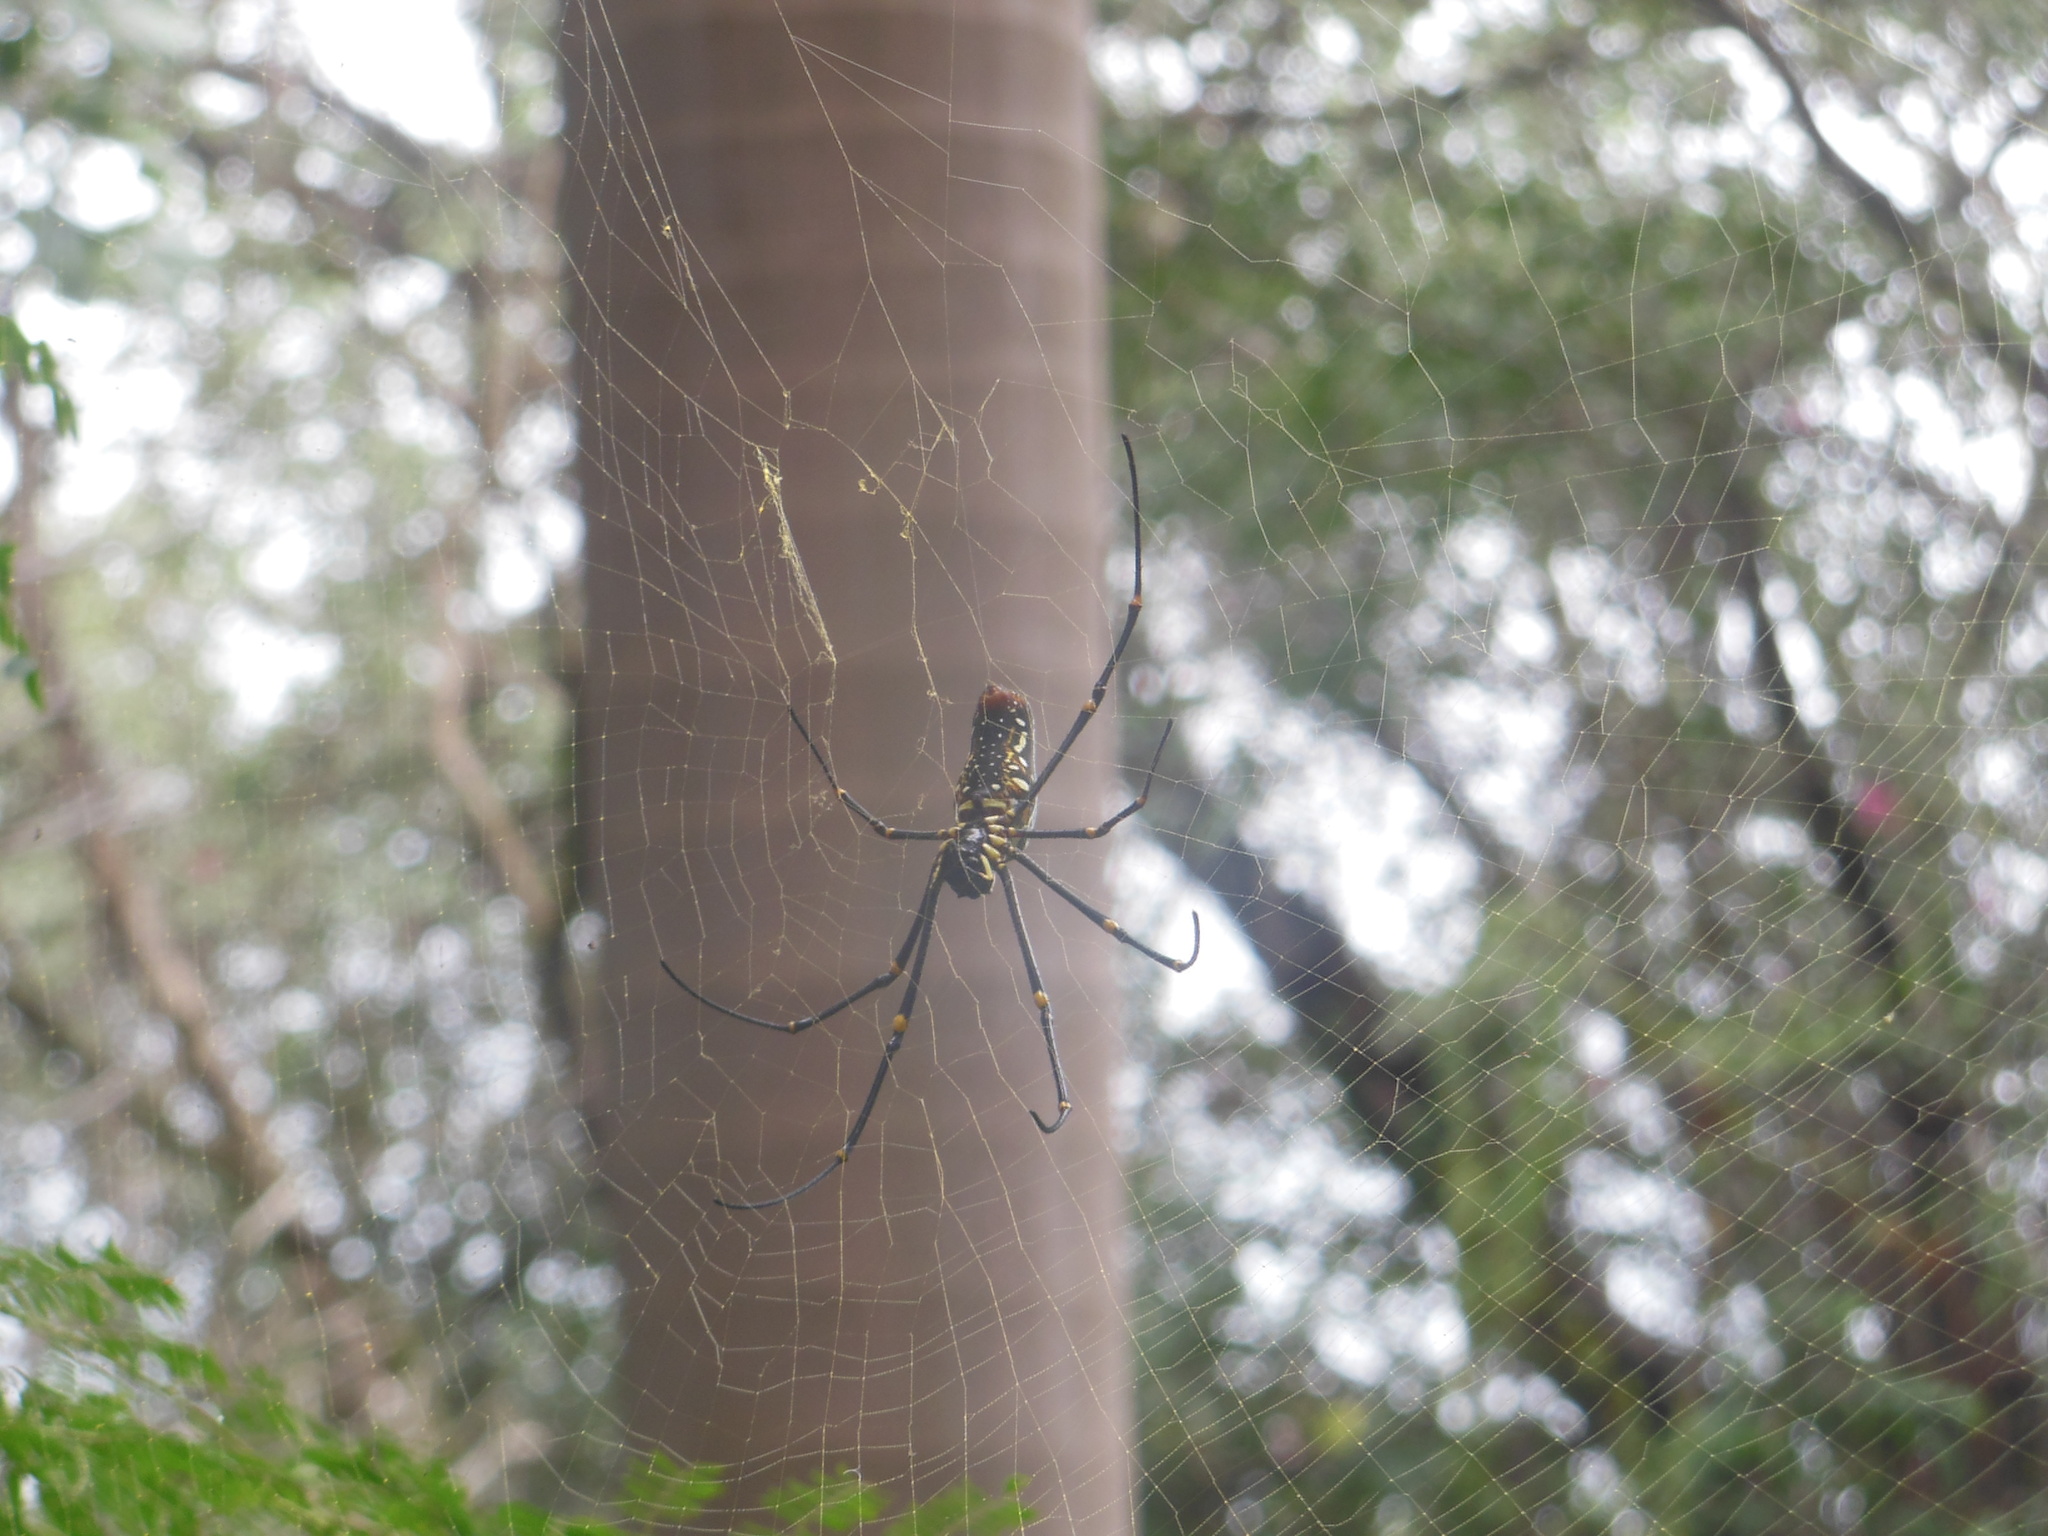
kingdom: Animalia
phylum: Arthropoda
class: Arachnida
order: Araneae
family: Araneidae
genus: Nephila
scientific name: Nephila pilipes
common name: Giant golden orb weaver
